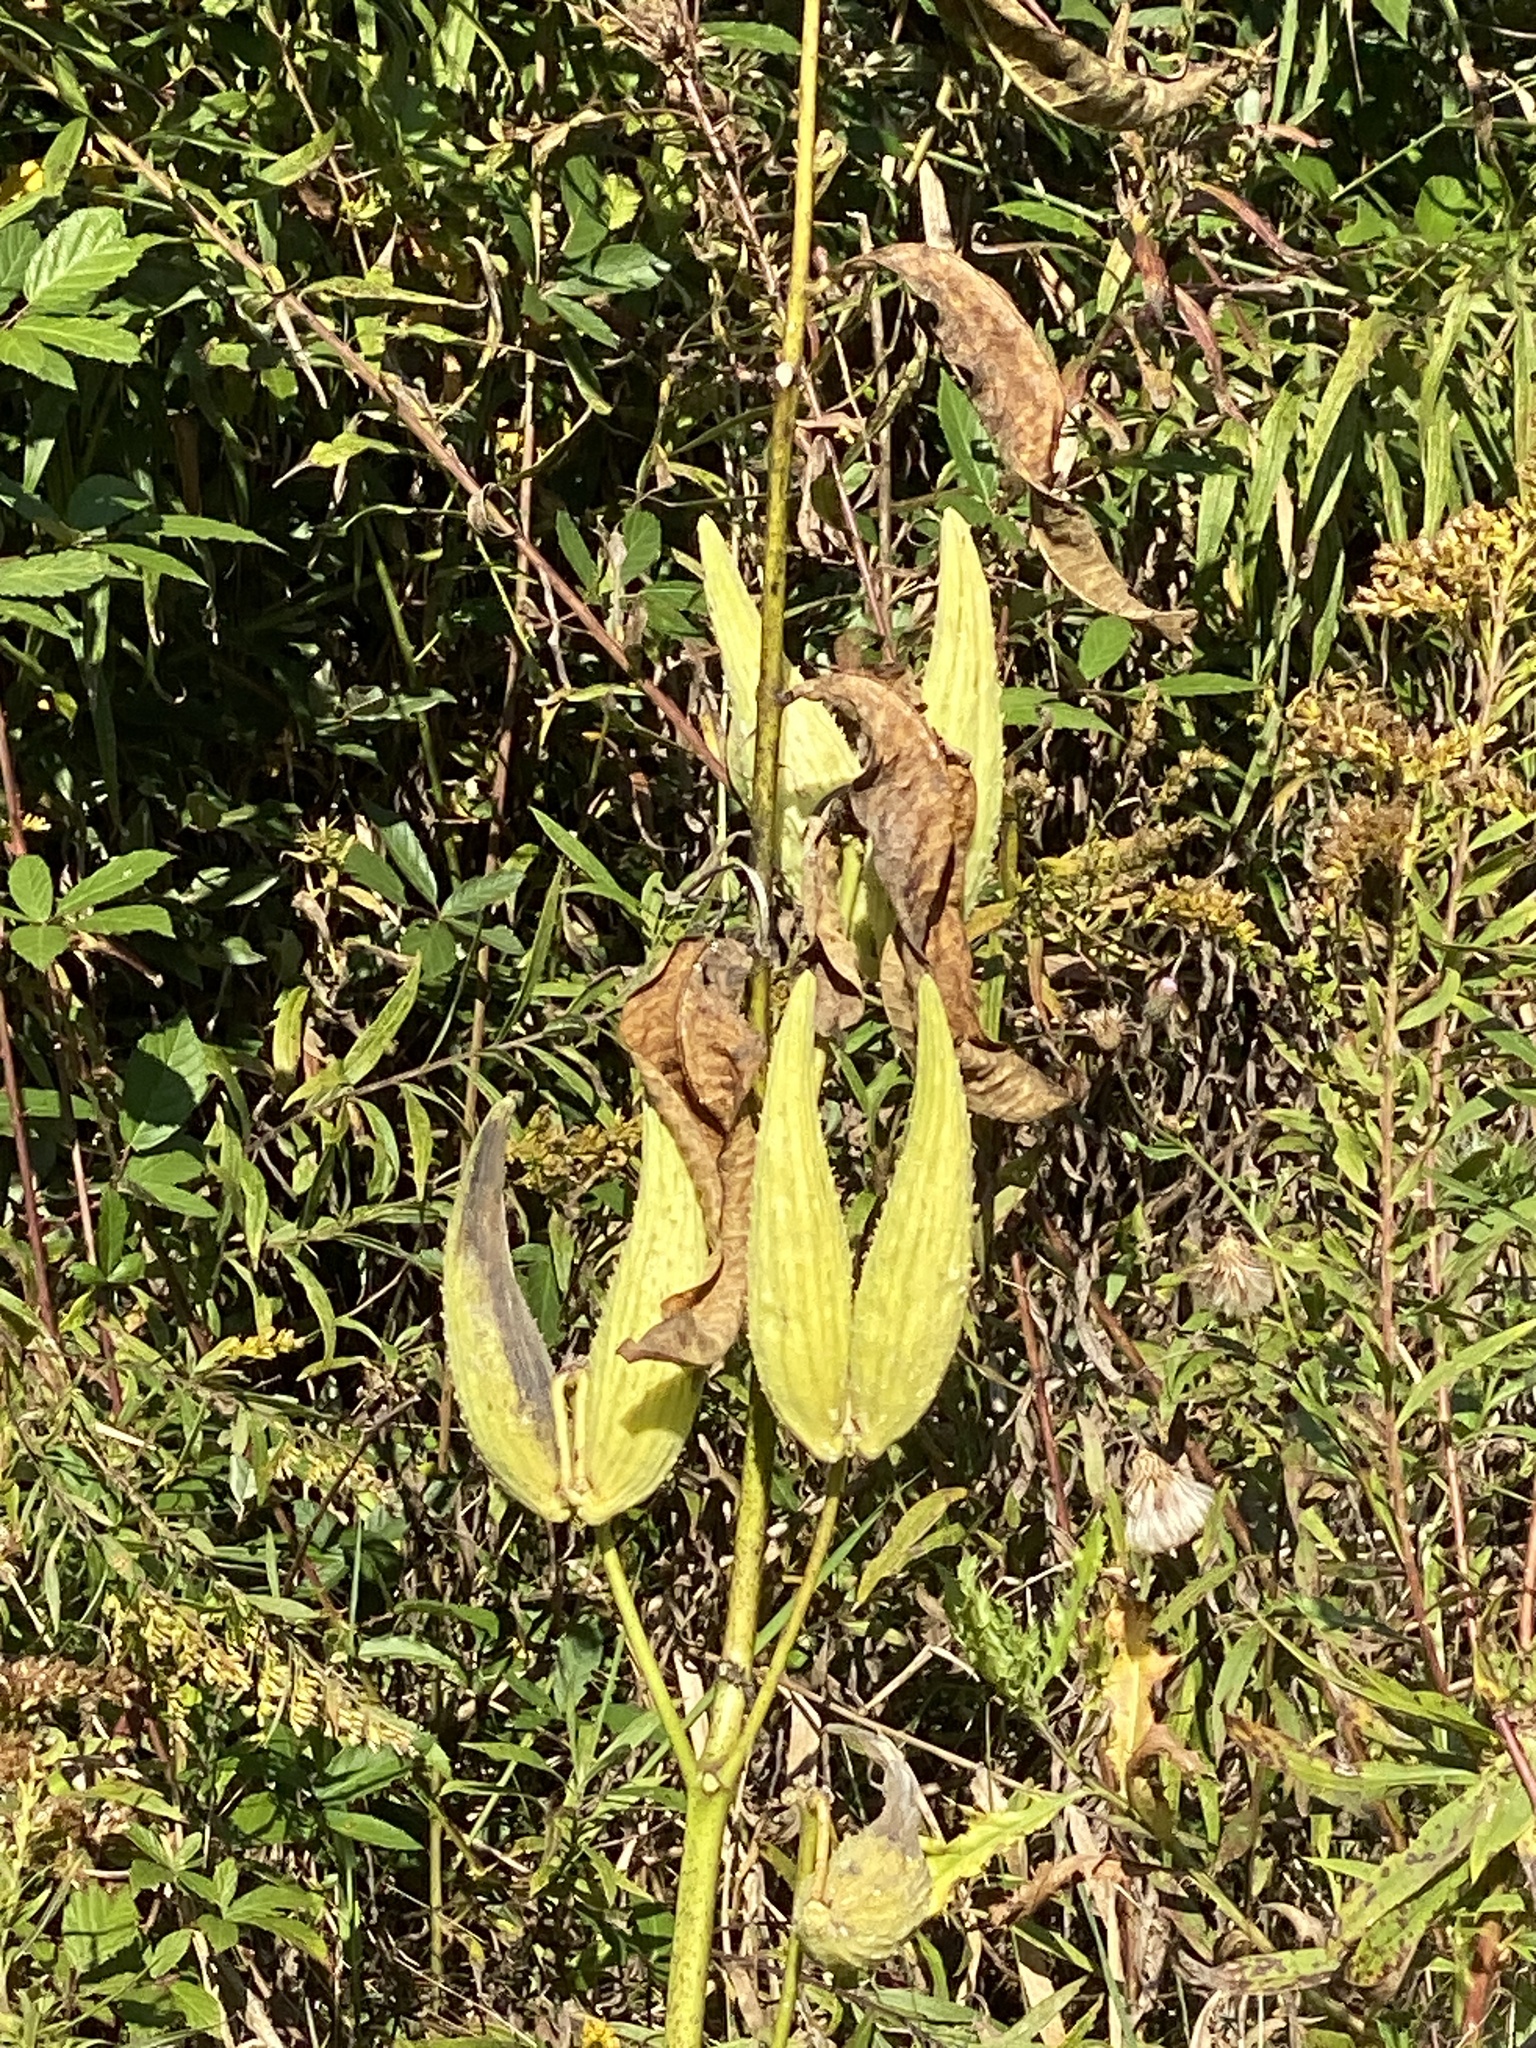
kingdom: Plantae
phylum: Tracheophyta
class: Magnoliopsida
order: Gentianales
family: Apocynaceae
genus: Asclepias
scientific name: Asclepias syriaca
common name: Common milkweed
